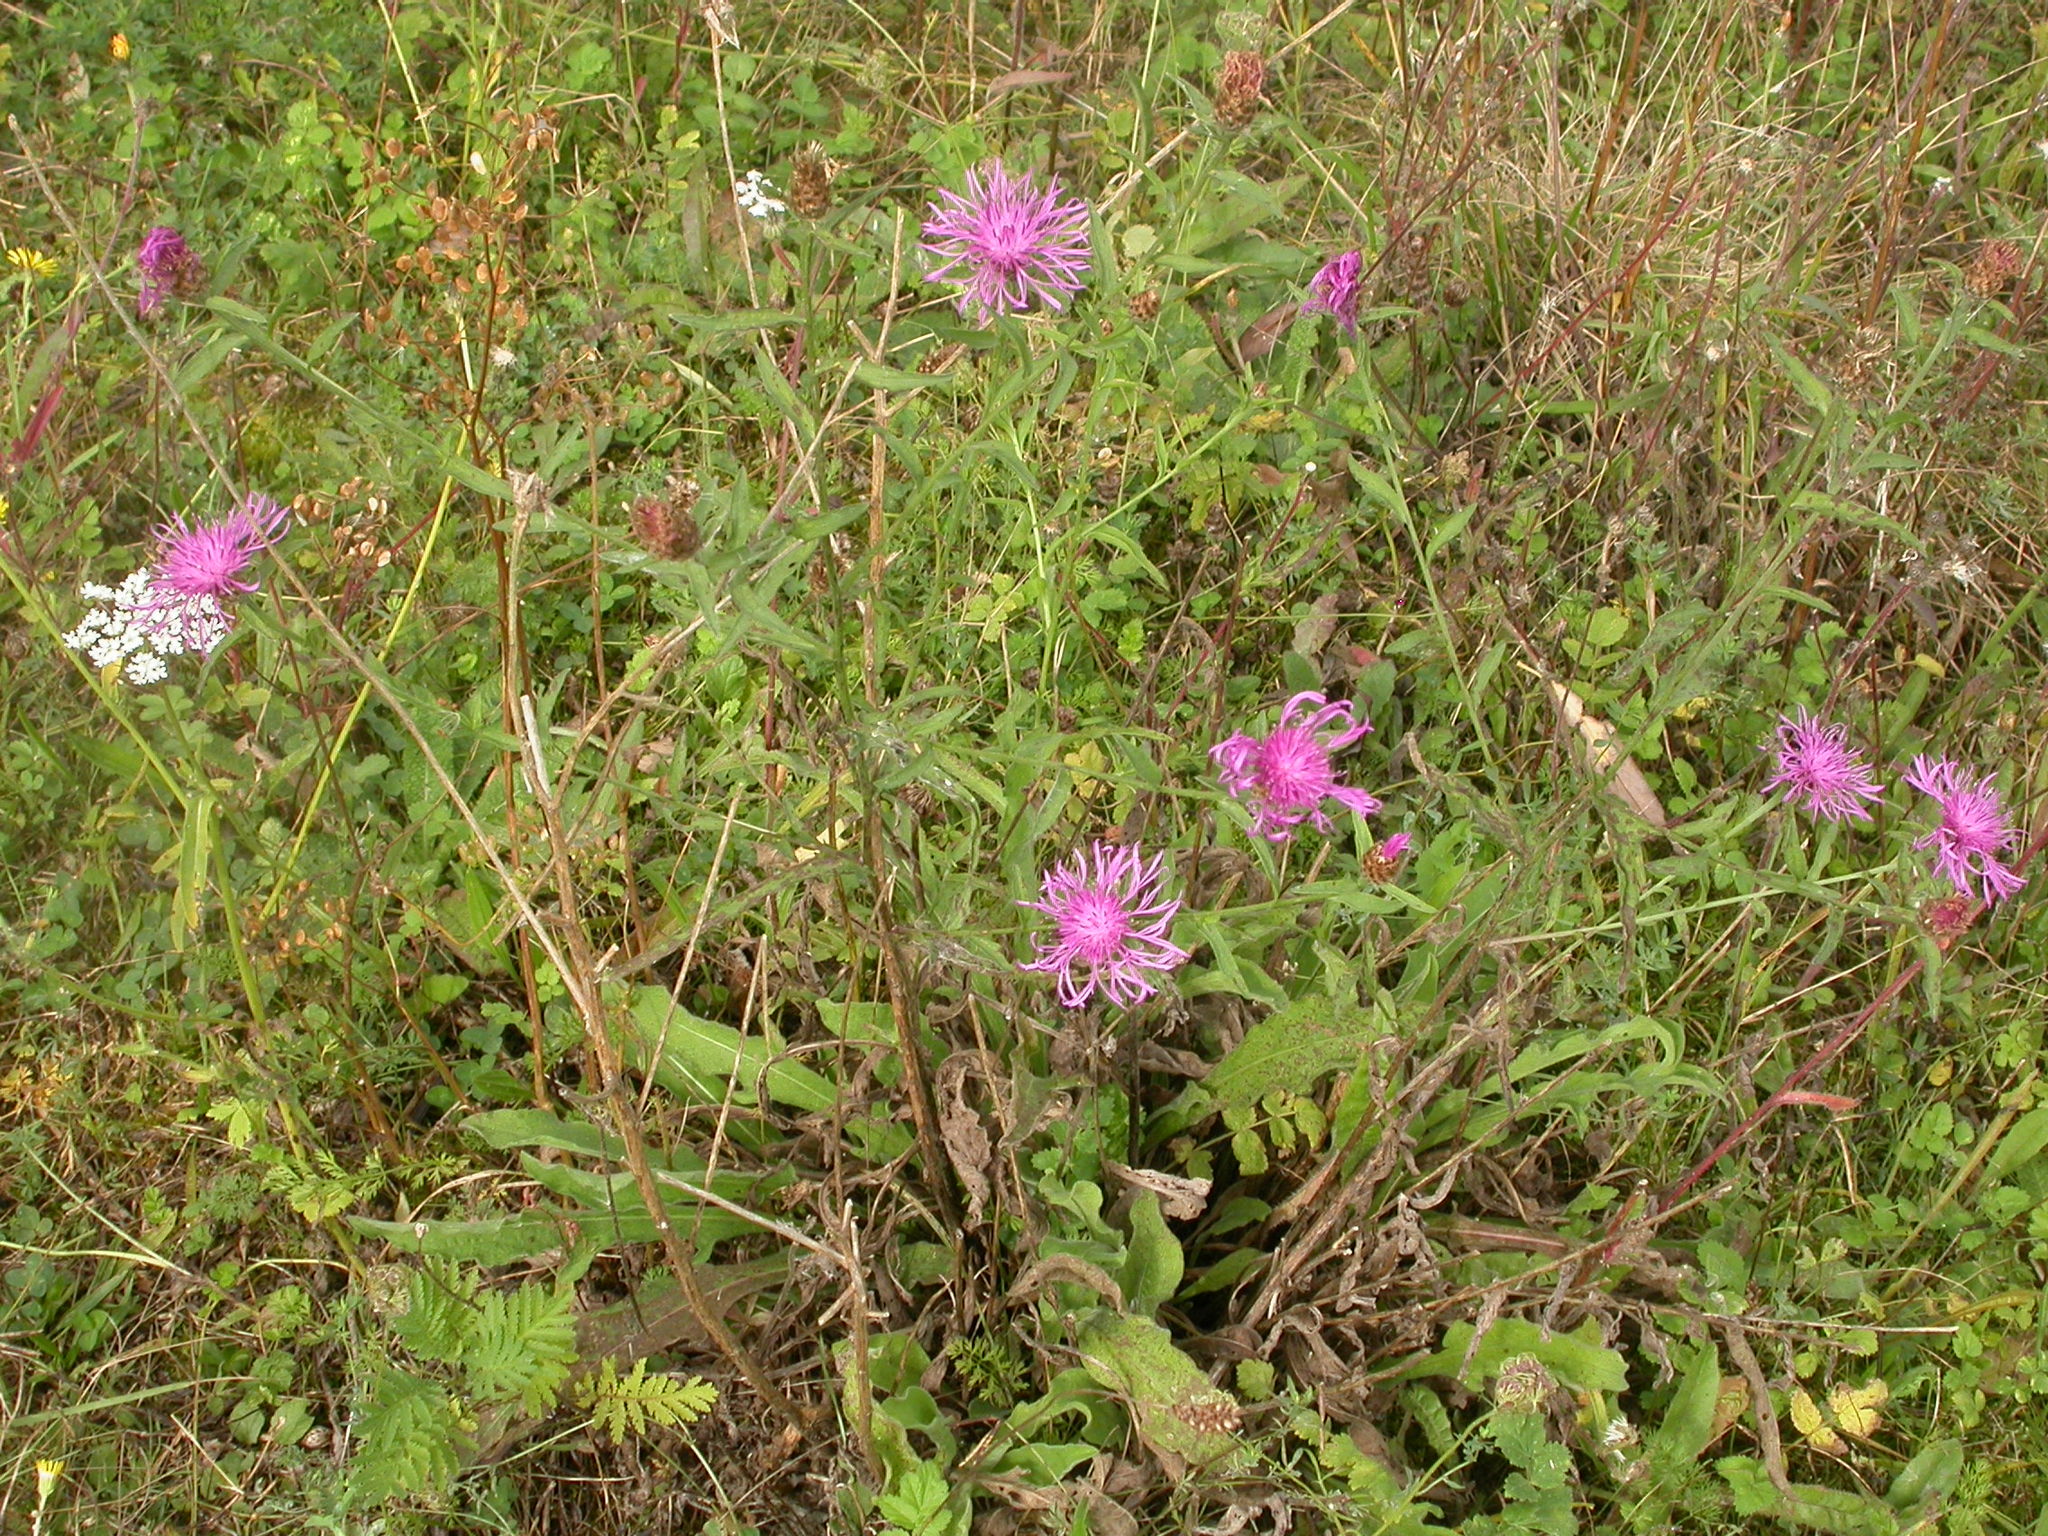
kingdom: Plantae
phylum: Tracheophyta
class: Magnoliopsida
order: Asterales
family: Asteraceae
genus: Centaurea
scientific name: Centaurea jacea
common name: Brown knapweed
